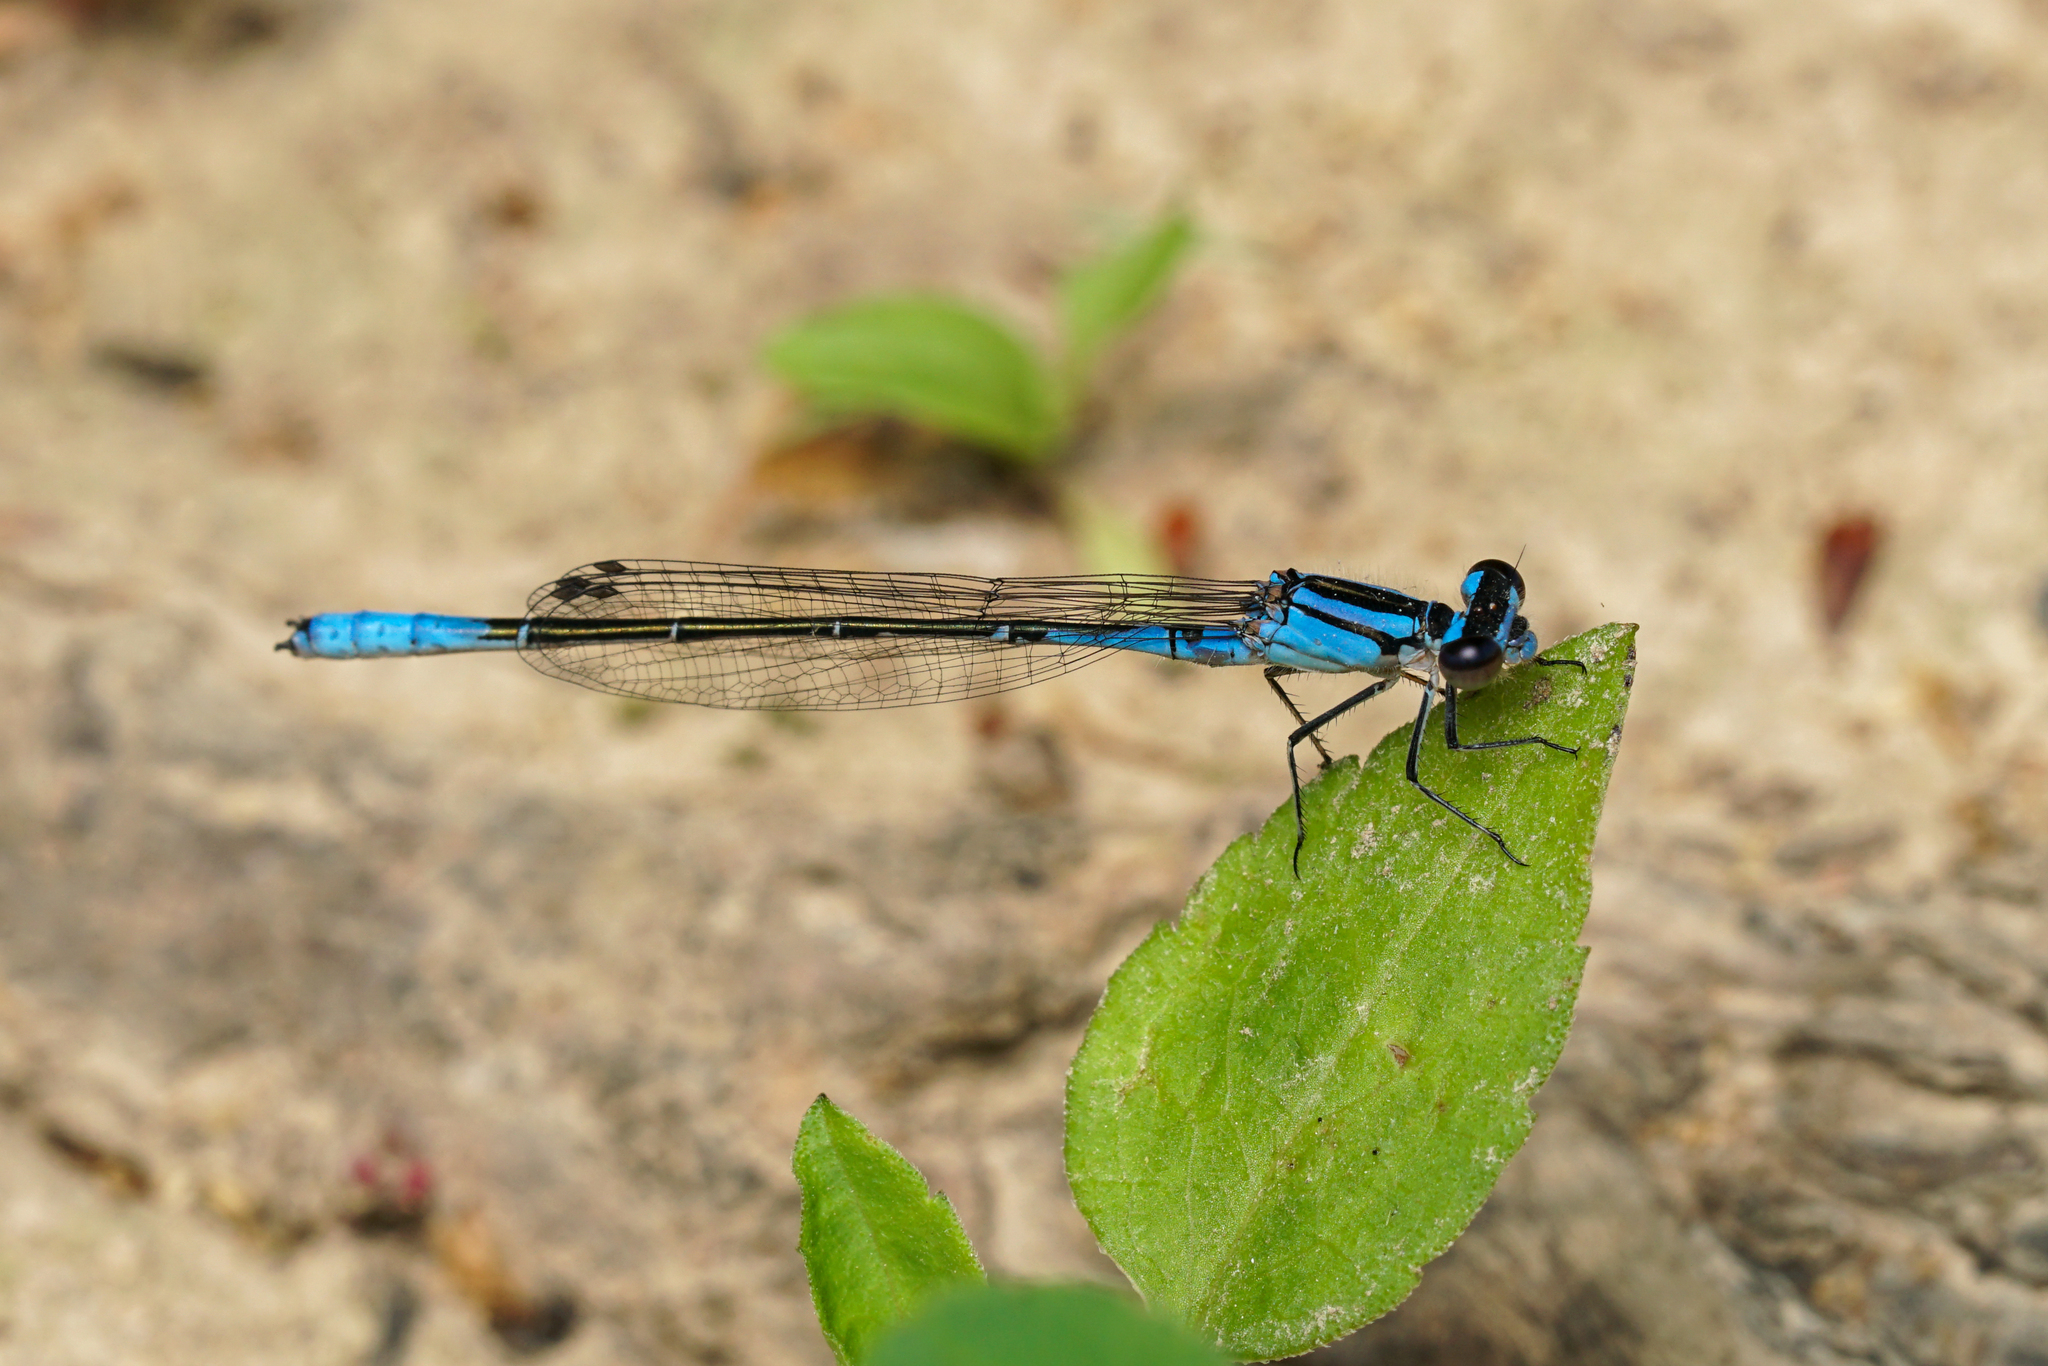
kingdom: Animalia
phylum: Arthropoda
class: Insecta
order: Odonata
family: Coenagrionidae
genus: Enallagma
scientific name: Enallagma aspersum
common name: Azure bluet
